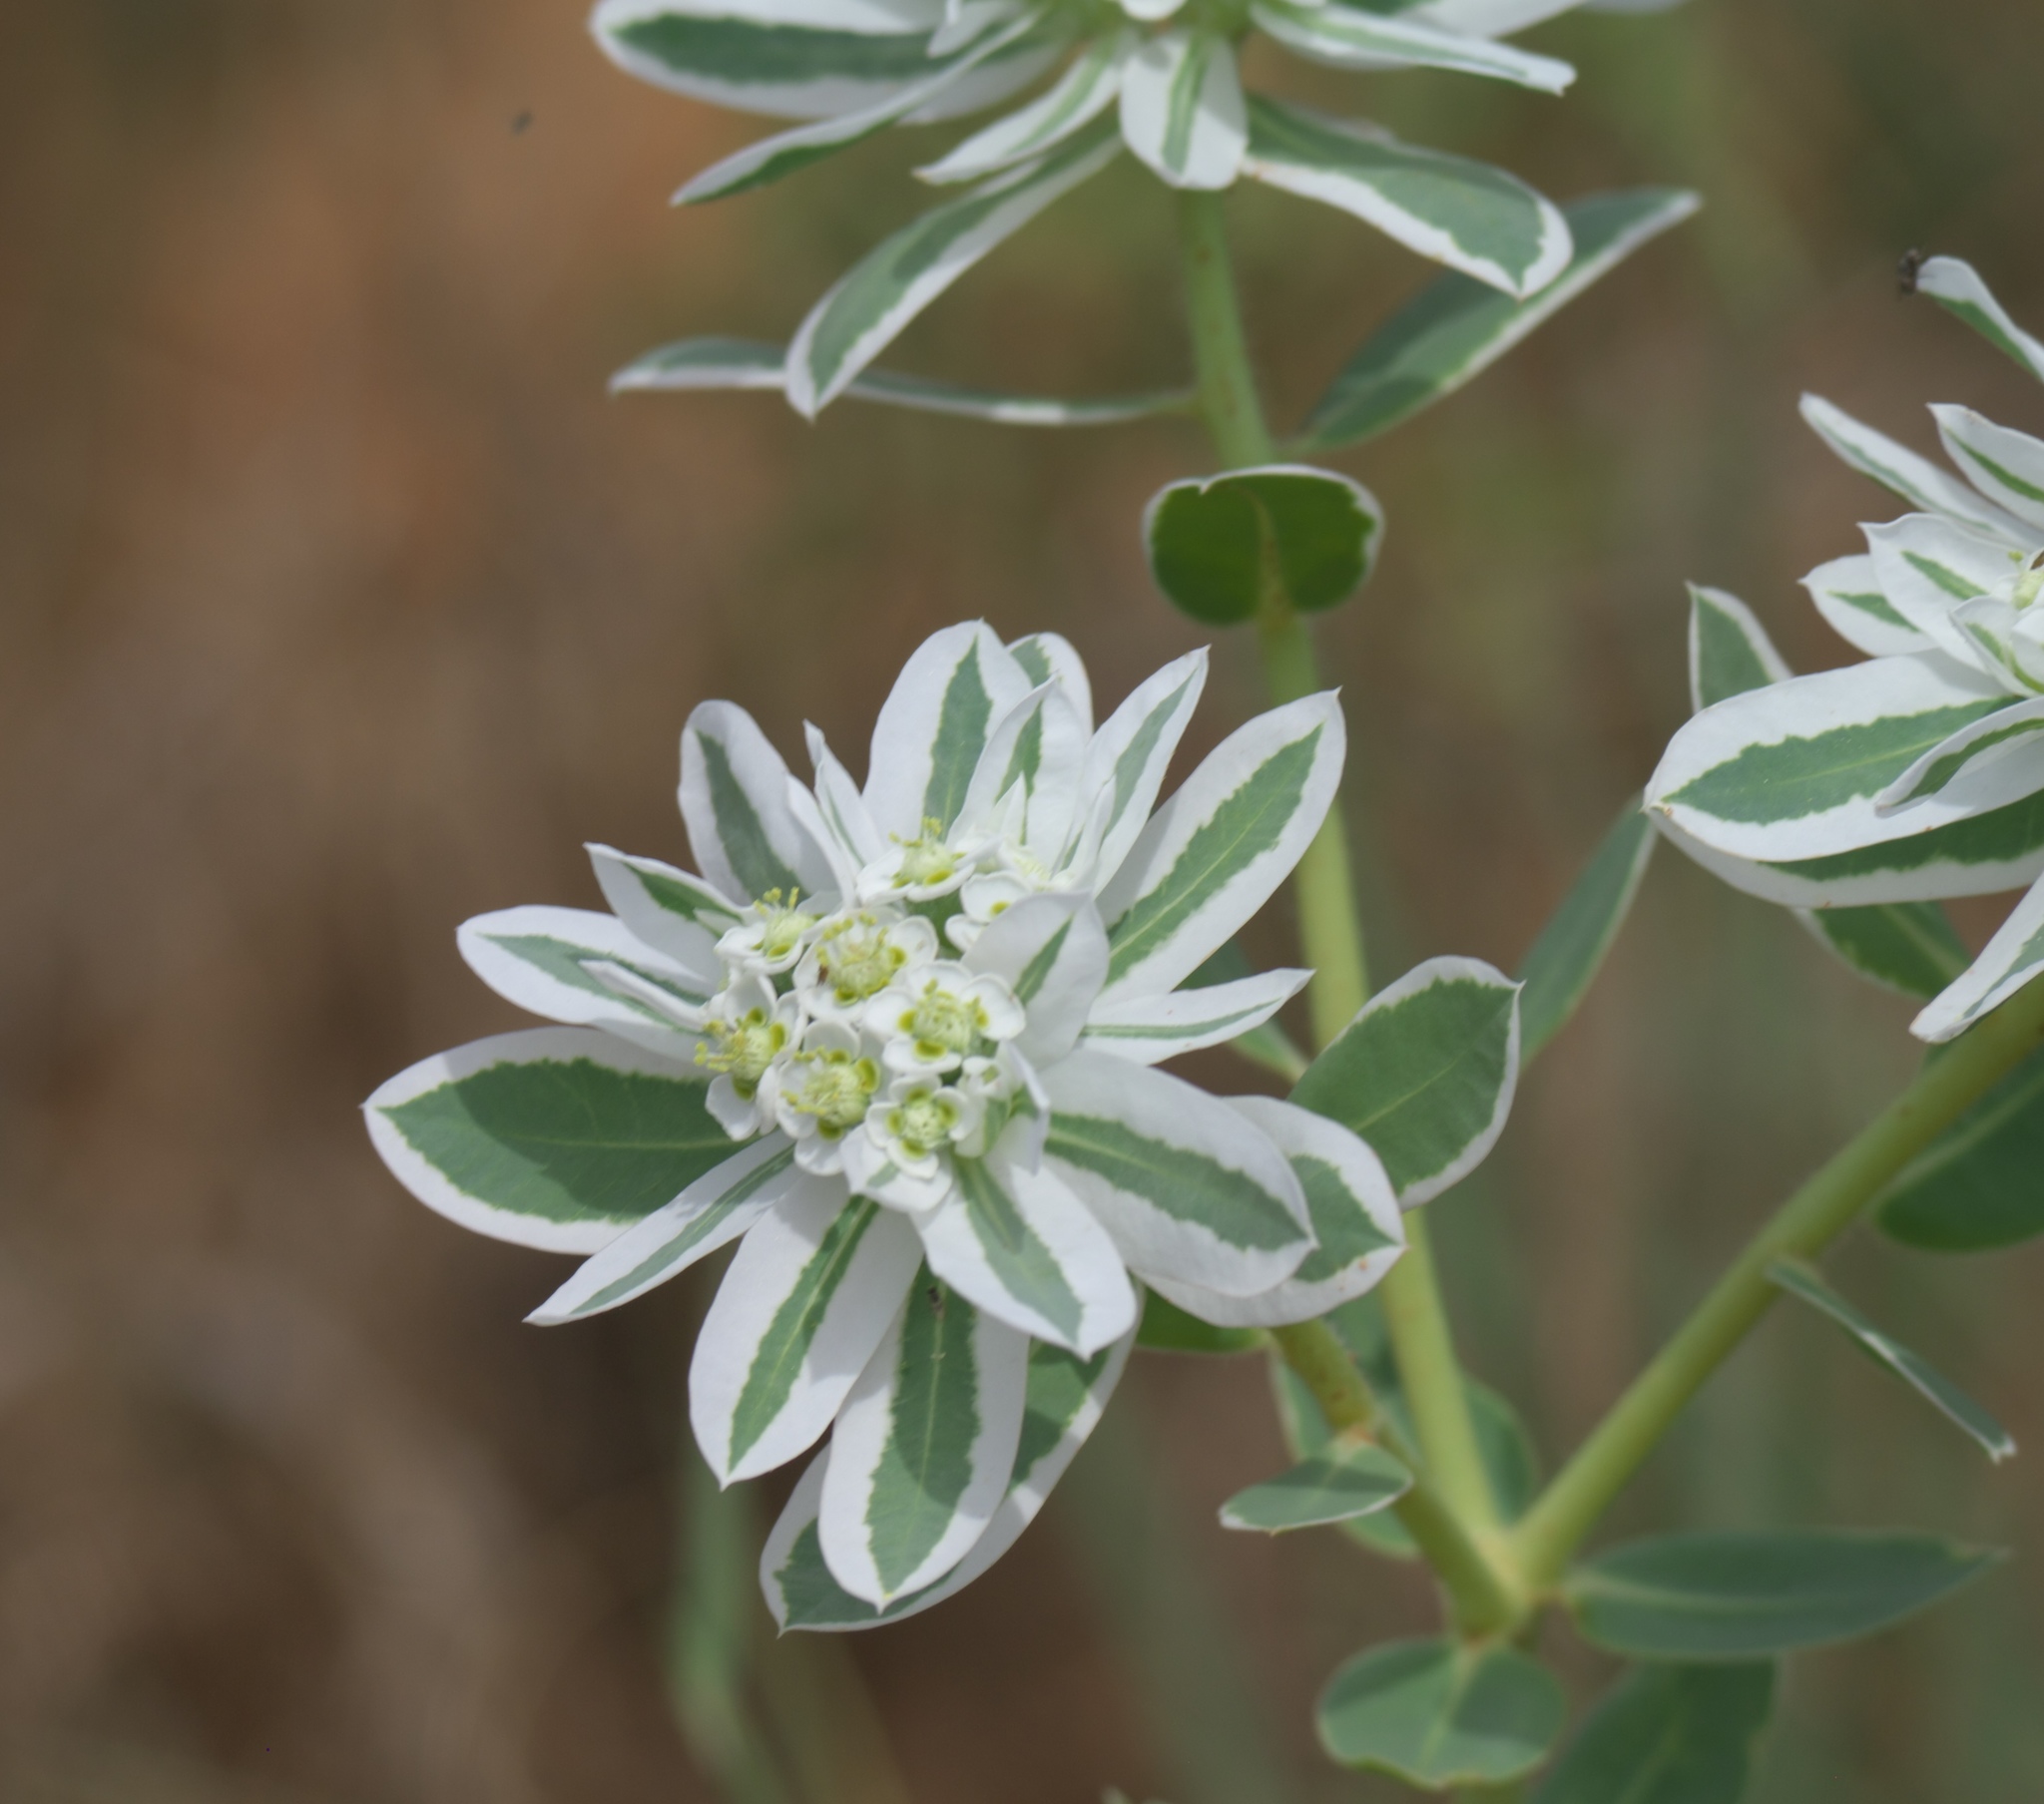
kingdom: Plantae
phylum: Tracheophyta
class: Magnoliopsida
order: Malpighiales
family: Euphorbiaceae
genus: Euphorbia
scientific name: Euphorbia marginata
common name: Ghostweed
